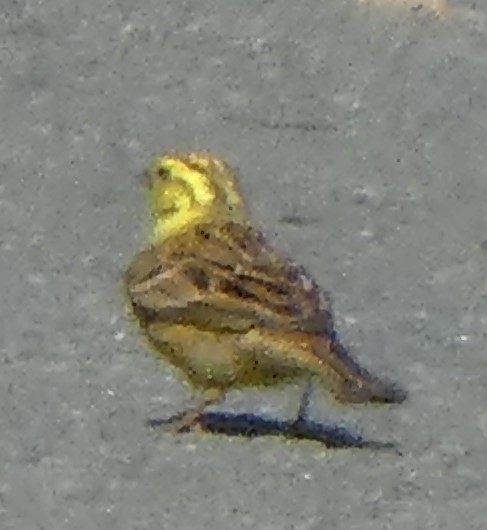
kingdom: Animalia
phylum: Chordata
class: Aves
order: Passeriformes
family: Emberizidae
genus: Emberiza
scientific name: Emberiza citrinella
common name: Yellowhammer
